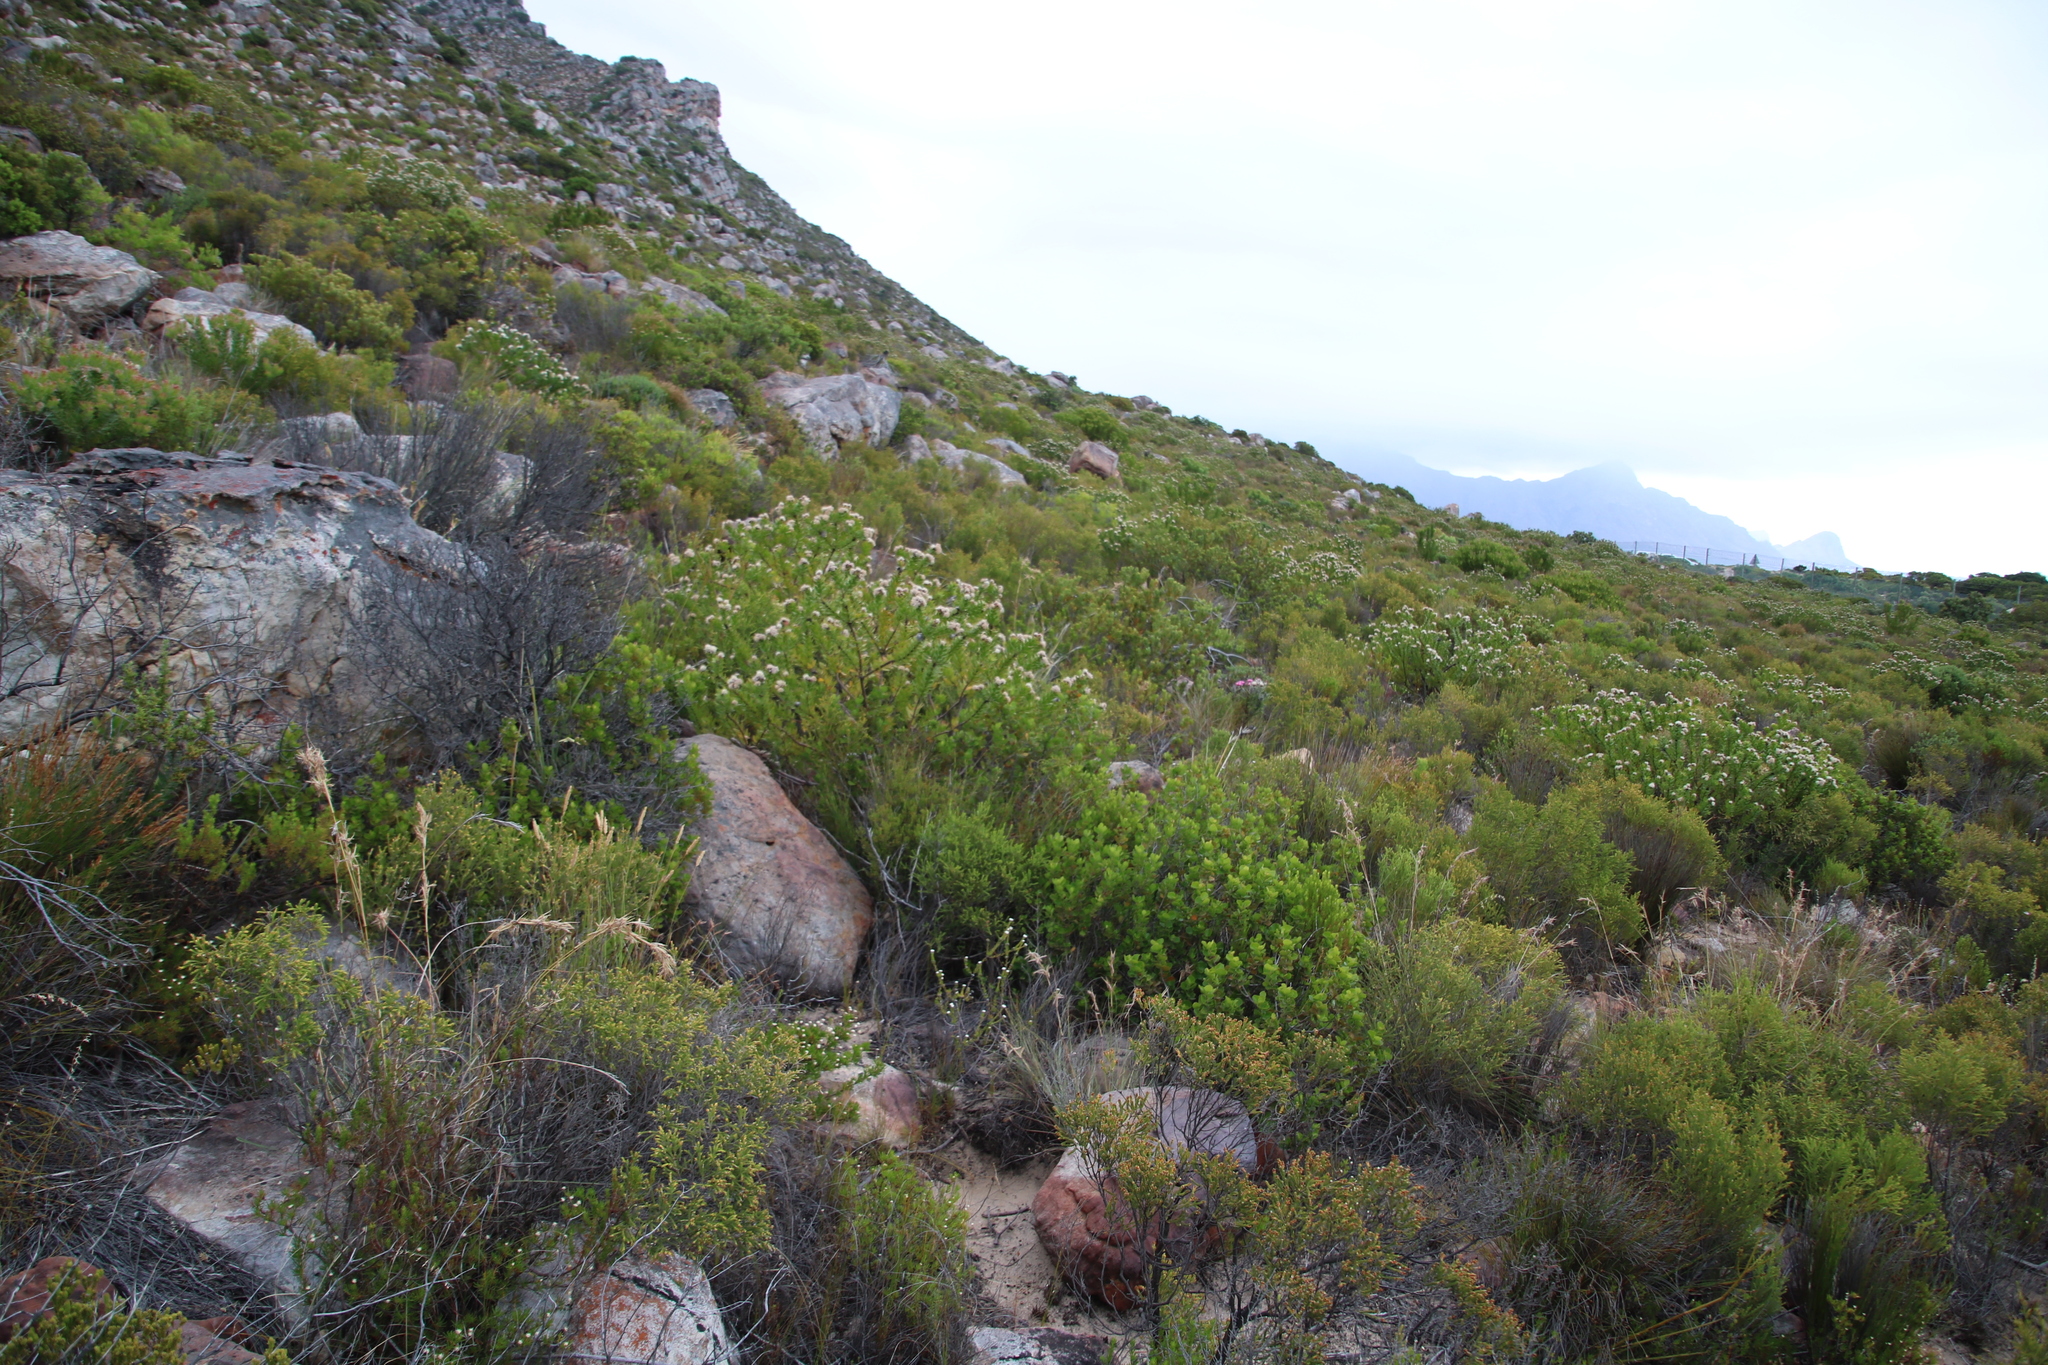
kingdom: Plantae
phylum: Tracheophyta
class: Magnoliopsida
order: Proteales
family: Proteaceae
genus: Leucospermum
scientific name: Leucospermum bolusii
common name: Gordon's bay pincushion
